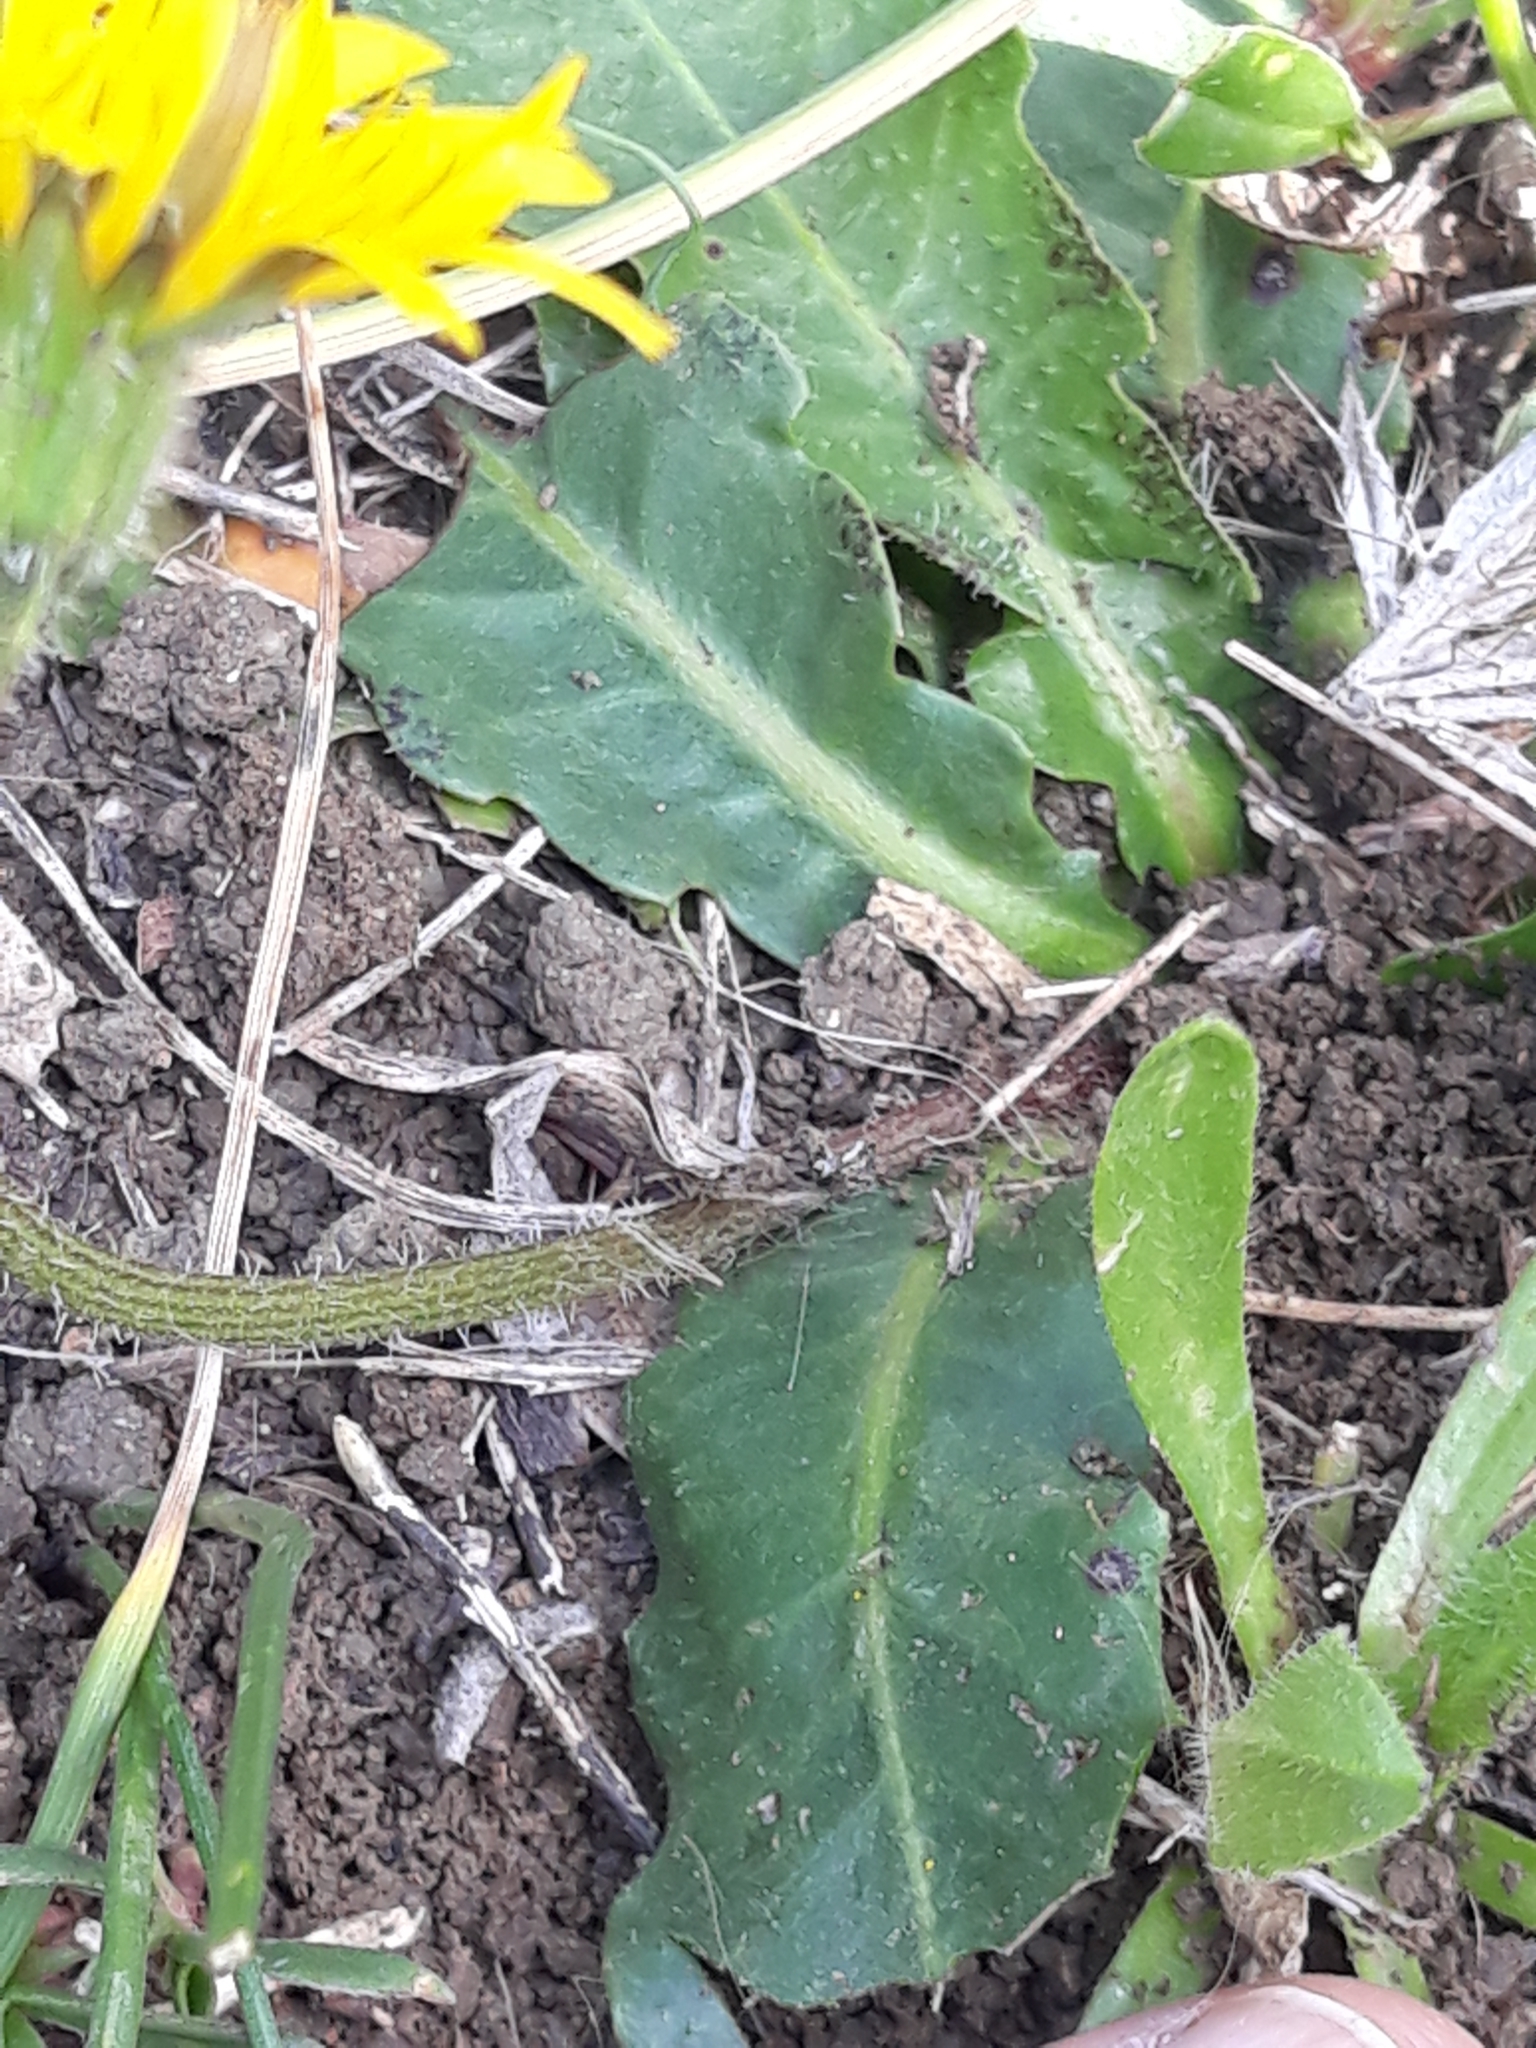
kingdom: Plantae
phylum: Tracheophyta
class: Magnoliopsida
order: Asterales
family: Asteraceae
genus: Leontodon
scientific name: Leontodon tuberosus
